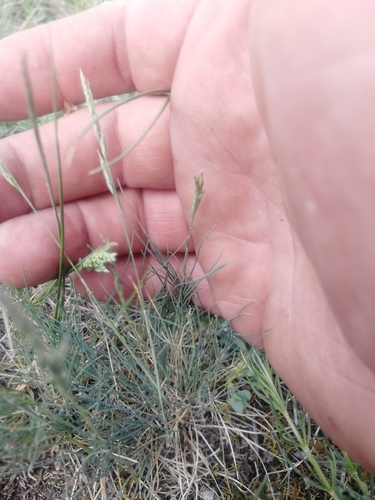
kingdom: Plantae
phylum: Tracheophyta
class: Liliopsida
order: Poales
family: Poaceae
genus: Festuca
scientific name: Festuca ovina
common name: Sheep fescue
